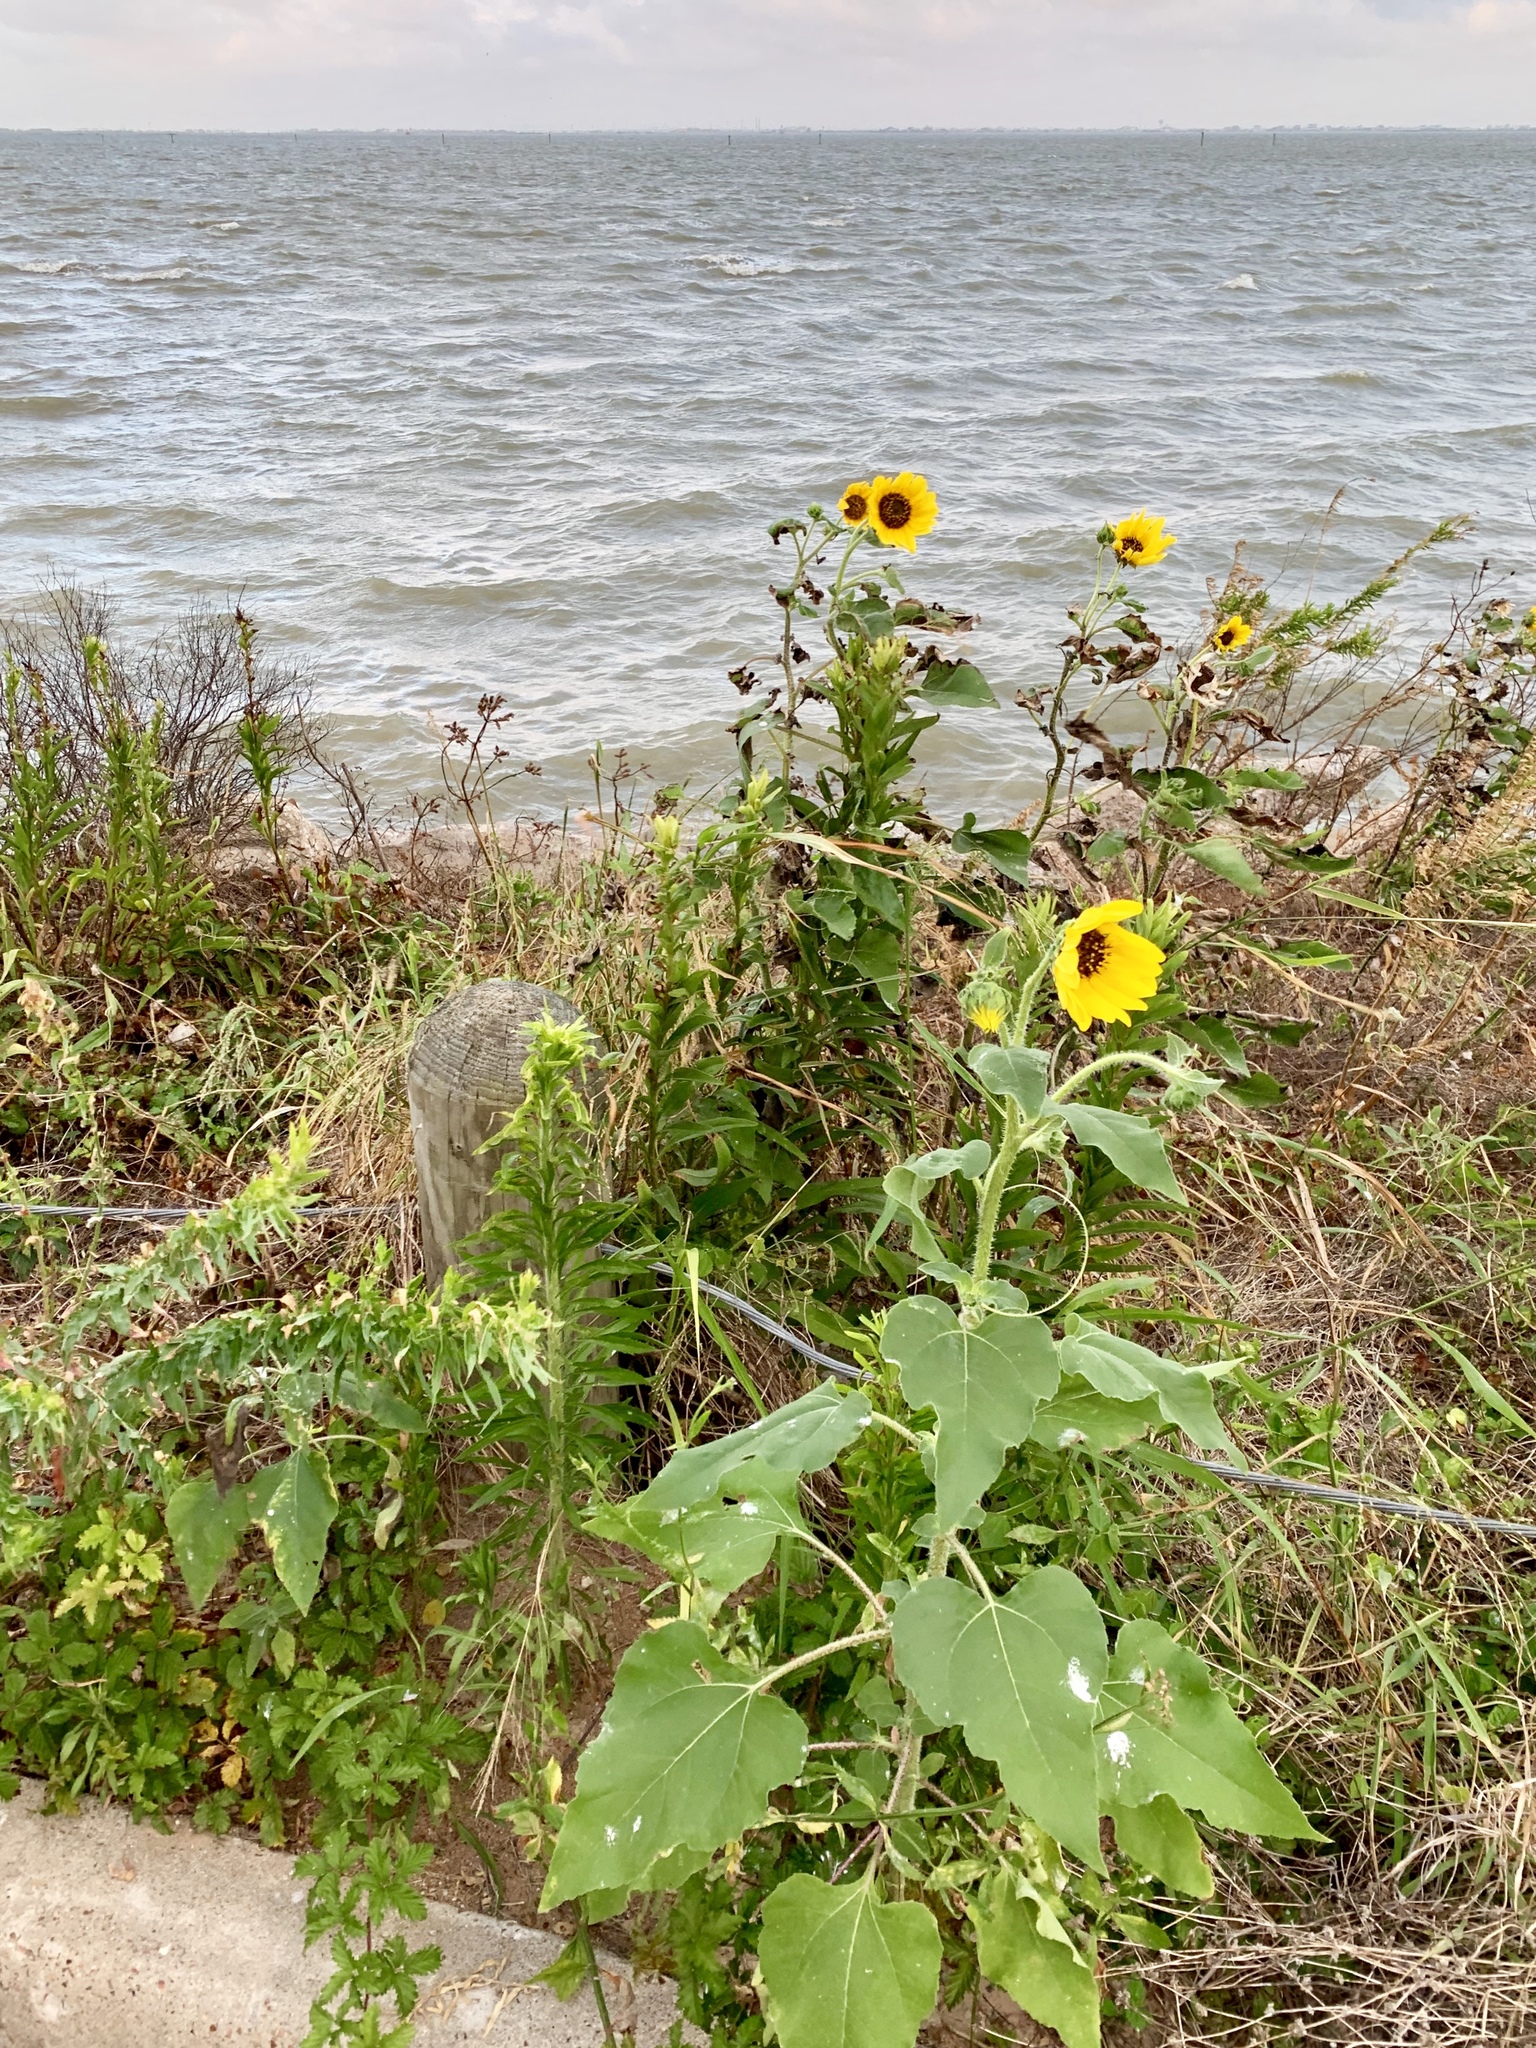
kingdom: Plantae
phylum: Tracheophyta
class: Magnoliopsida
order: Asterales
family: Asteraceae
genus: Helianthus
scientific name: Helianthus annuus
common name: Sunflower
